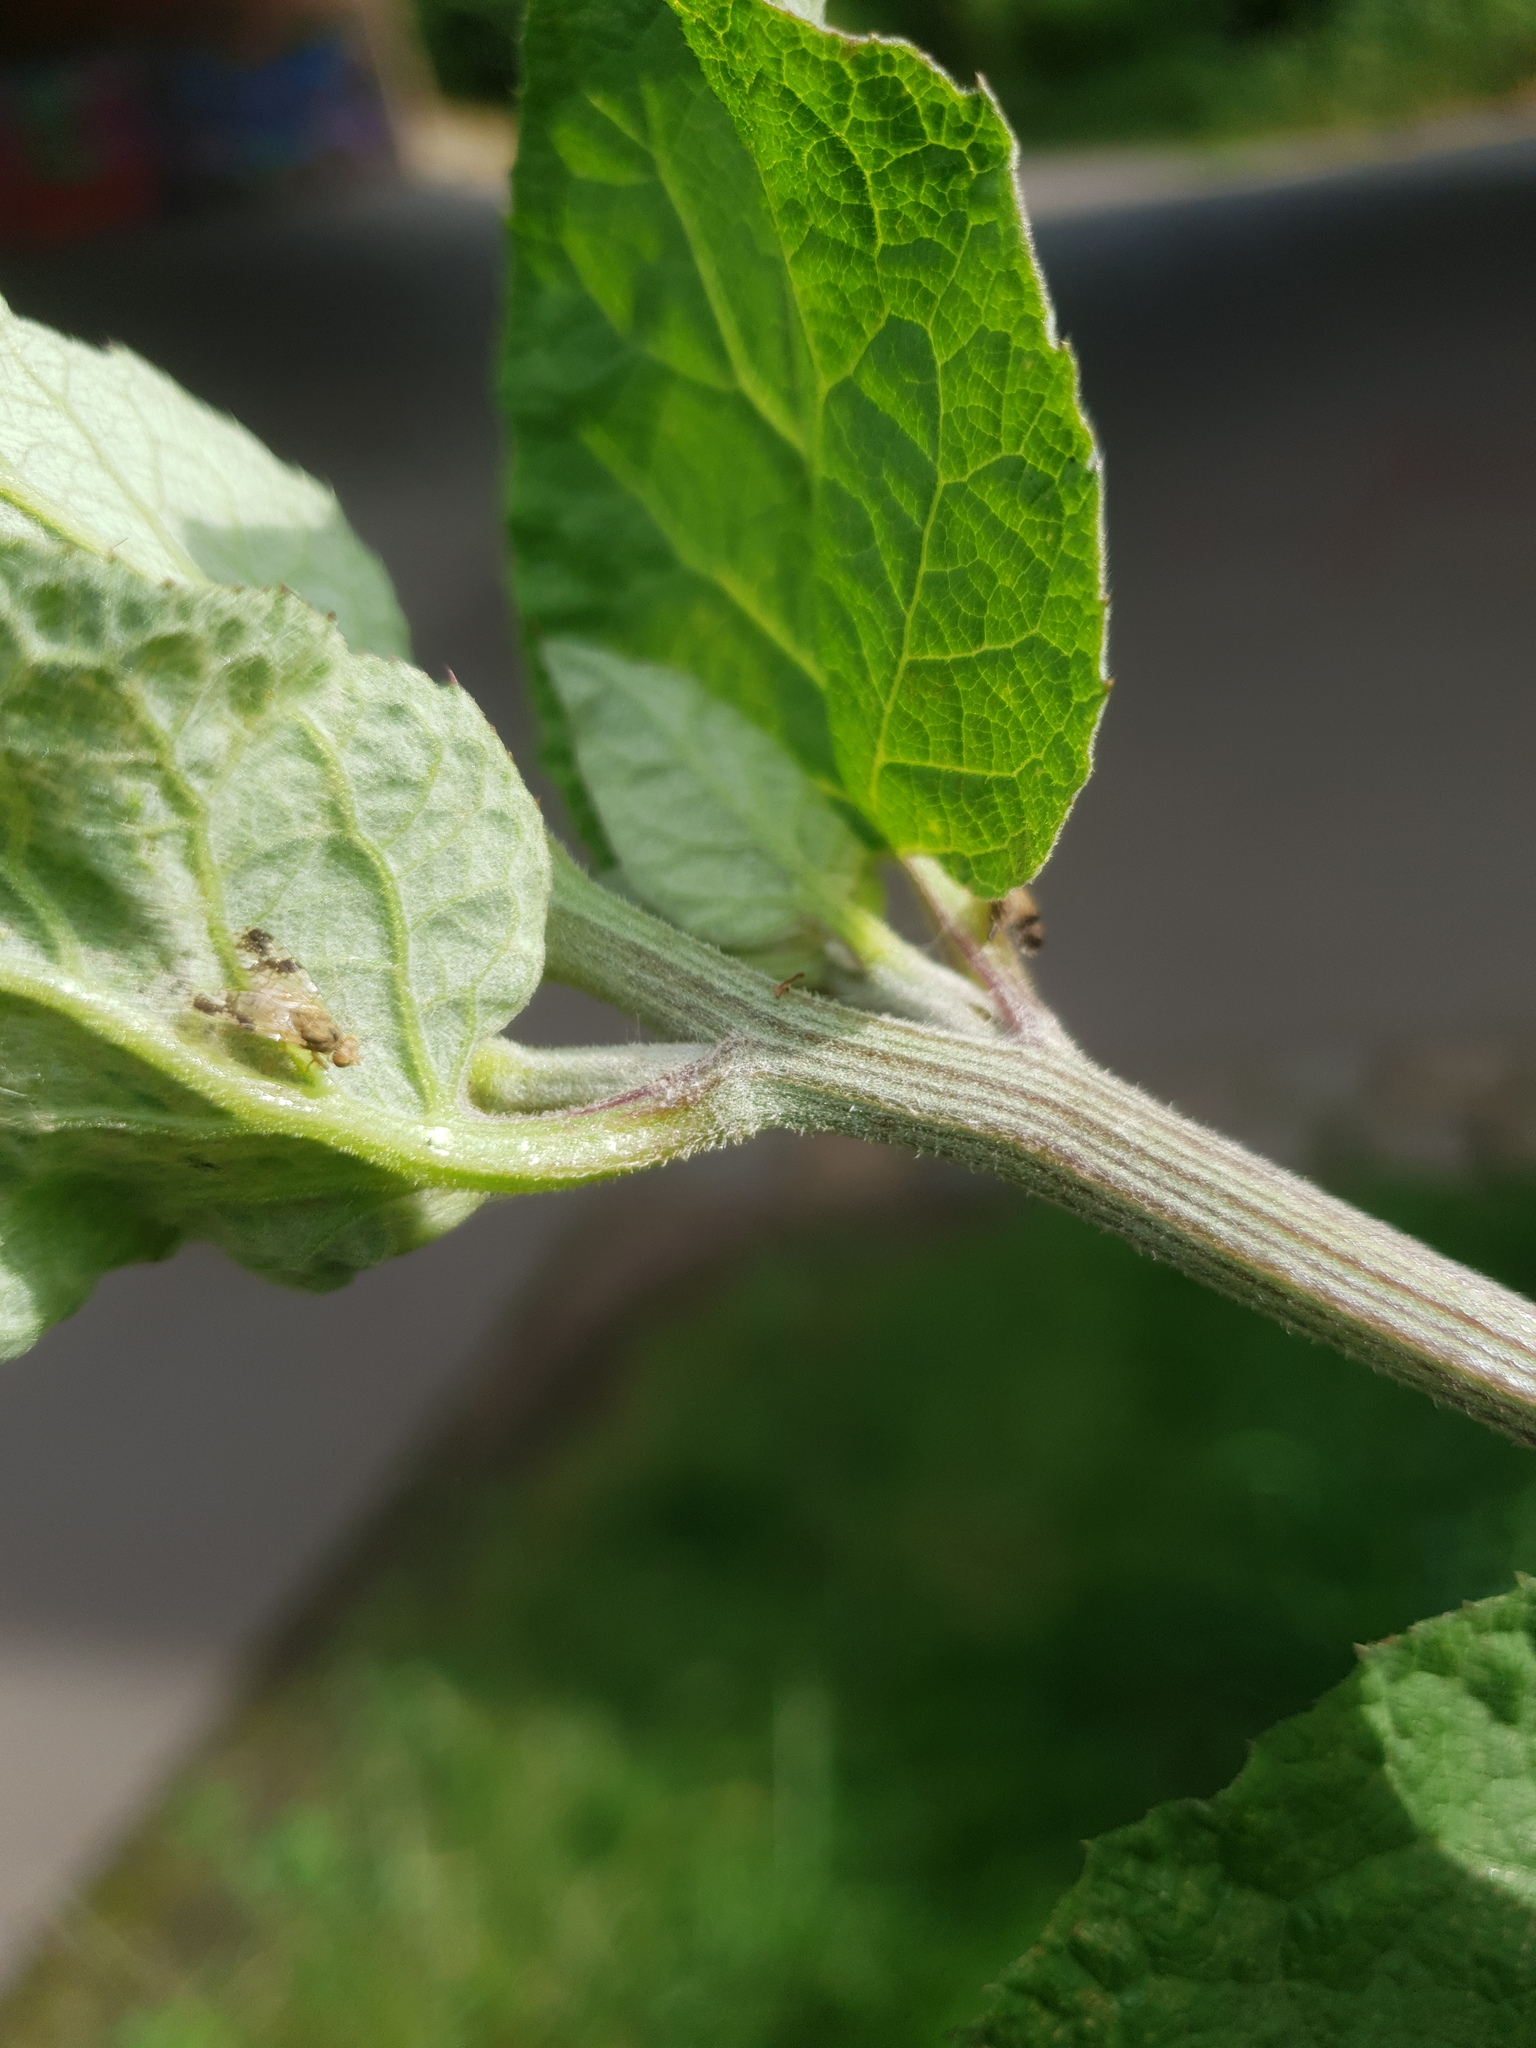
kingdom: Animalia
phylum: Arthropoda
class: Insecta
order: Diptera
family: Tephritidae
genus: Tephritis
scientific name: Tephritis bardanae
